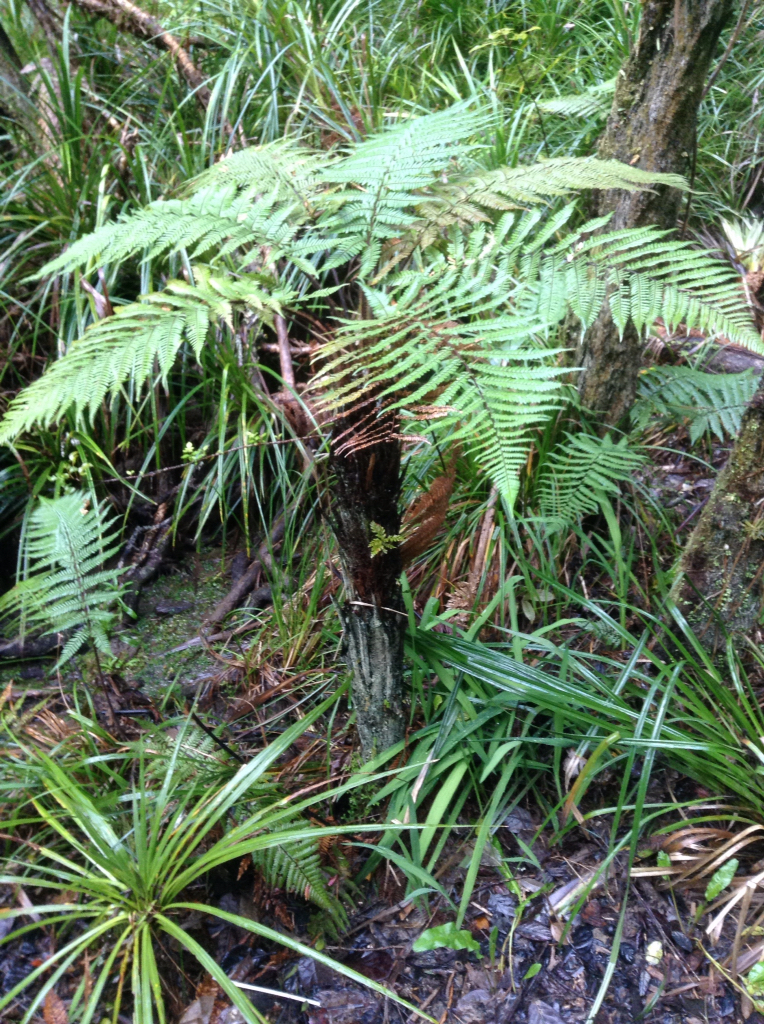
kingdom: Plantae
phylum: Tracheophyta
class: Polypodiopsida
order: Cyatheales
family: Dicksoniaceae
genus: Dicksonia
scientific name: Dicksonia squarrosa
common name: Hard treefern
